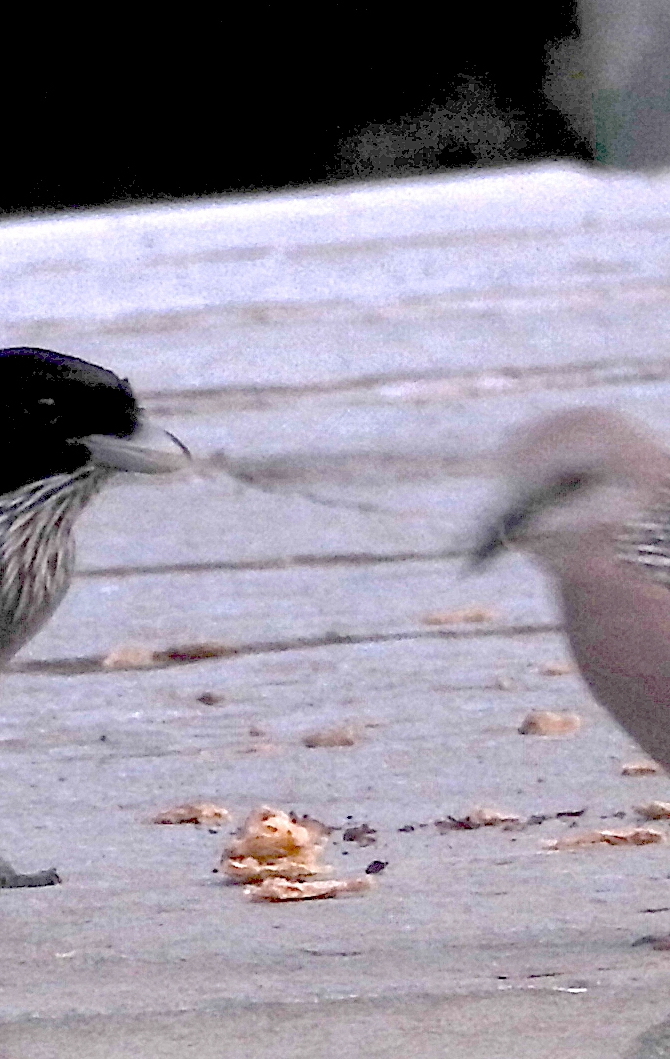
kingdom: Animalia
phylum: Chordata
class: Aves
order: Columbiformes
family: Columbidae
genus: Spilopelia
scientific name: Spilopelia chinensis
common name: Spotted dove
